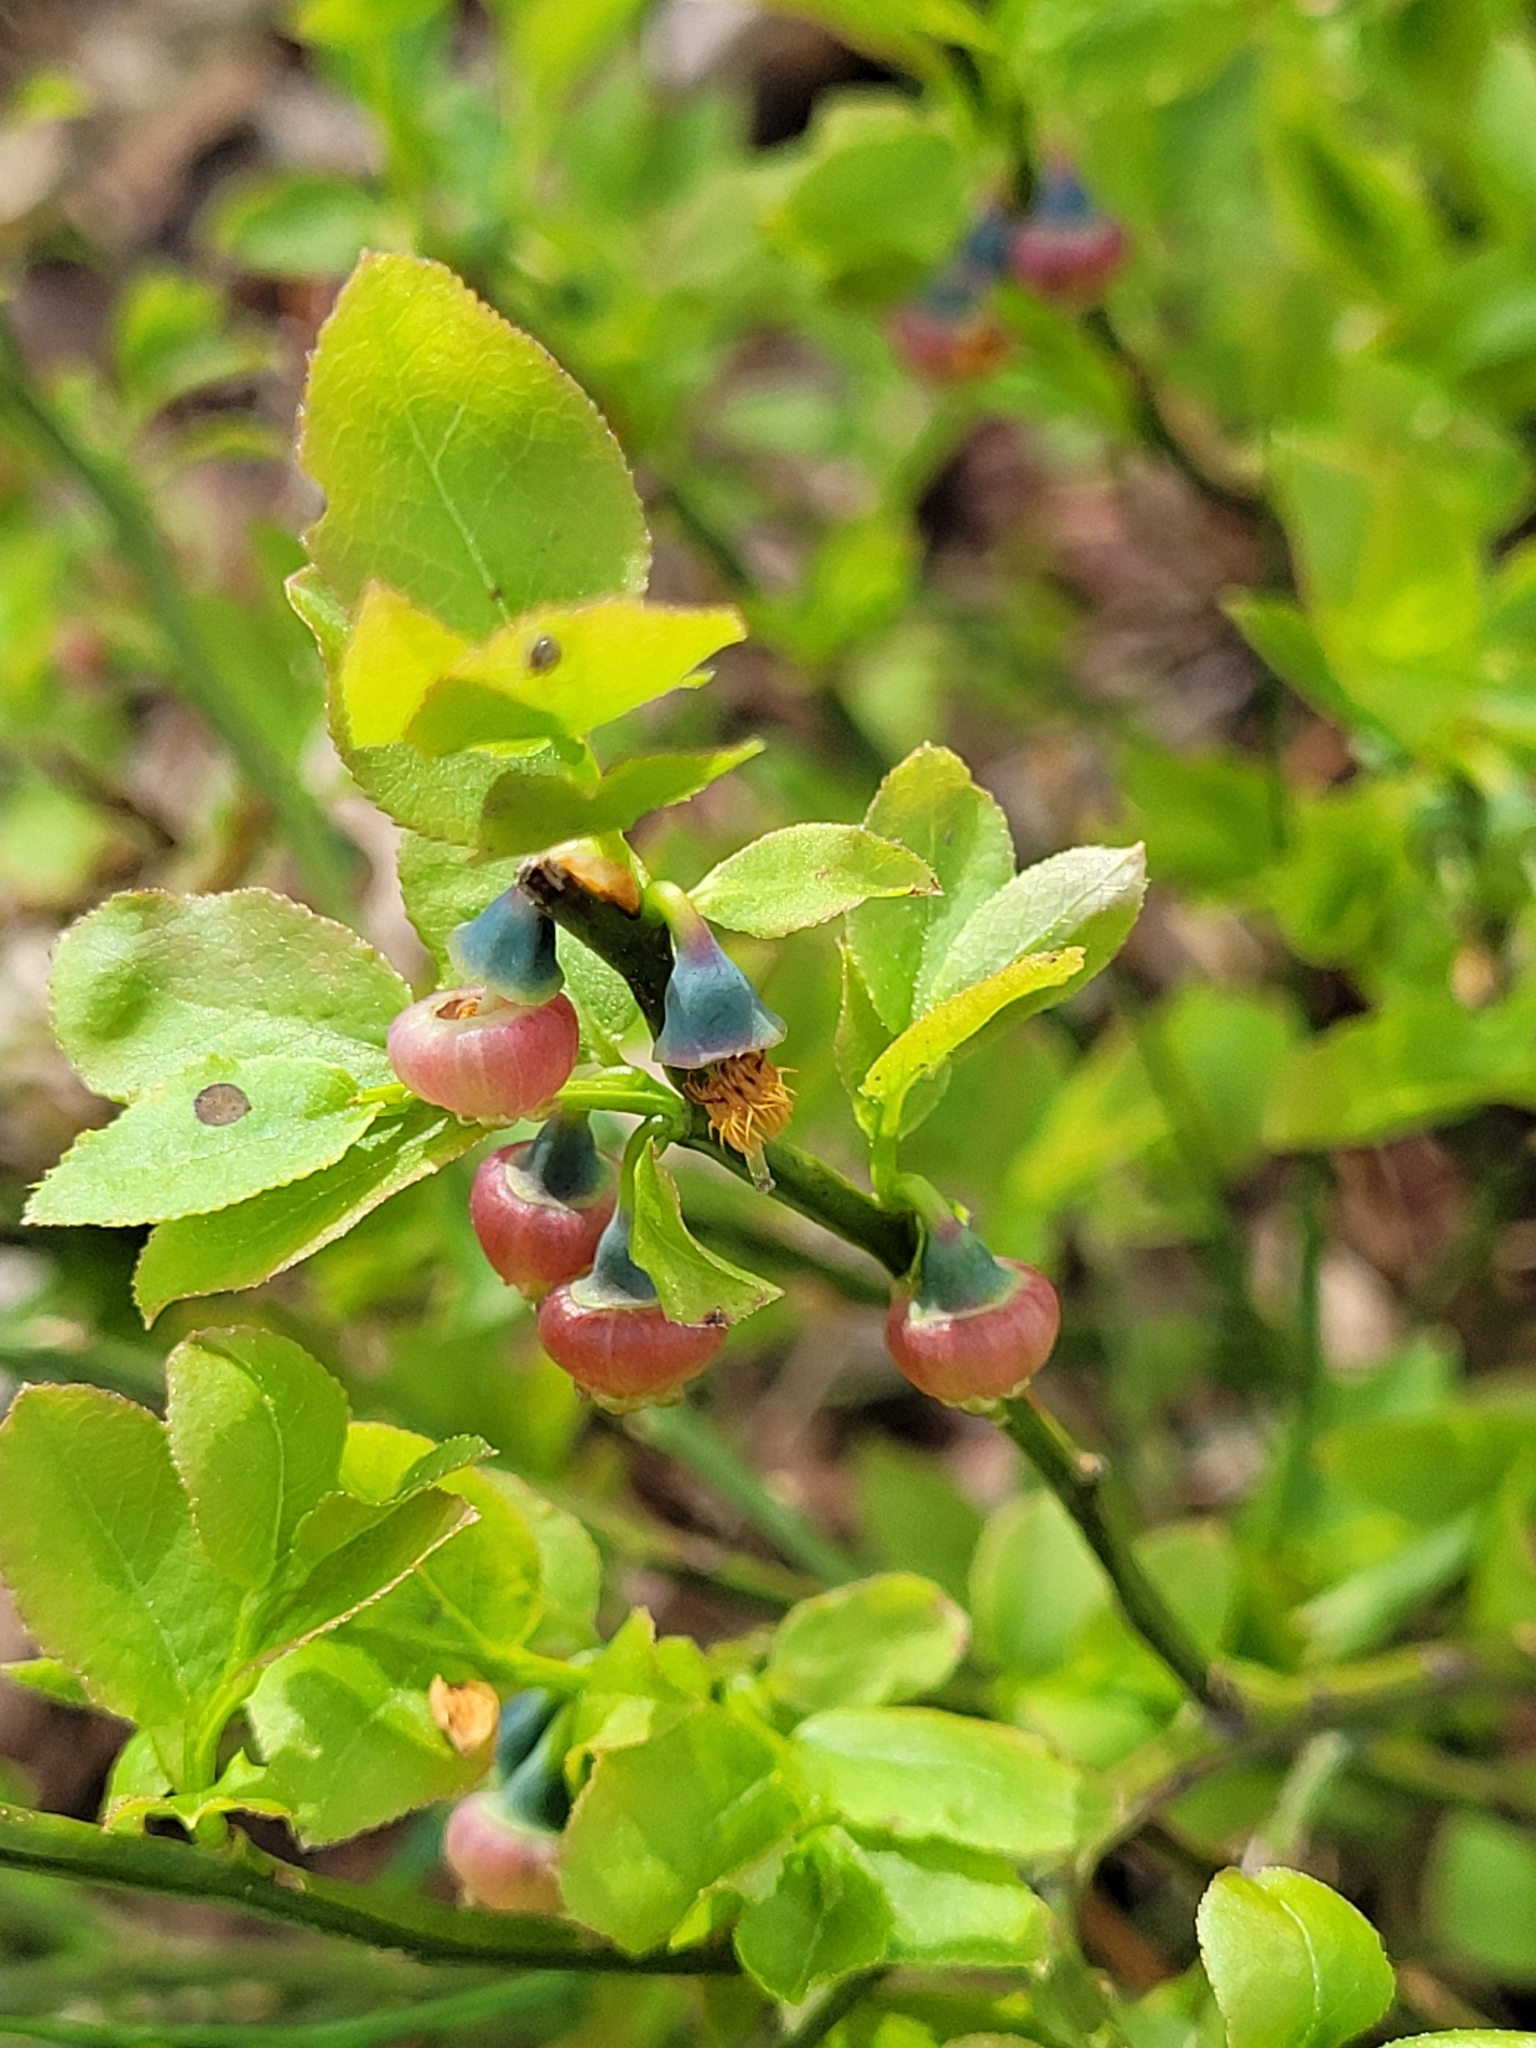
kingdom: Plantae
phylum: Tracheophyta
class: Magnoliopsida
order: Ericales
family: Ericaceae
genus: Vaccinium
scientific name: Vaccinium myrtillus
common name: Bilberry
